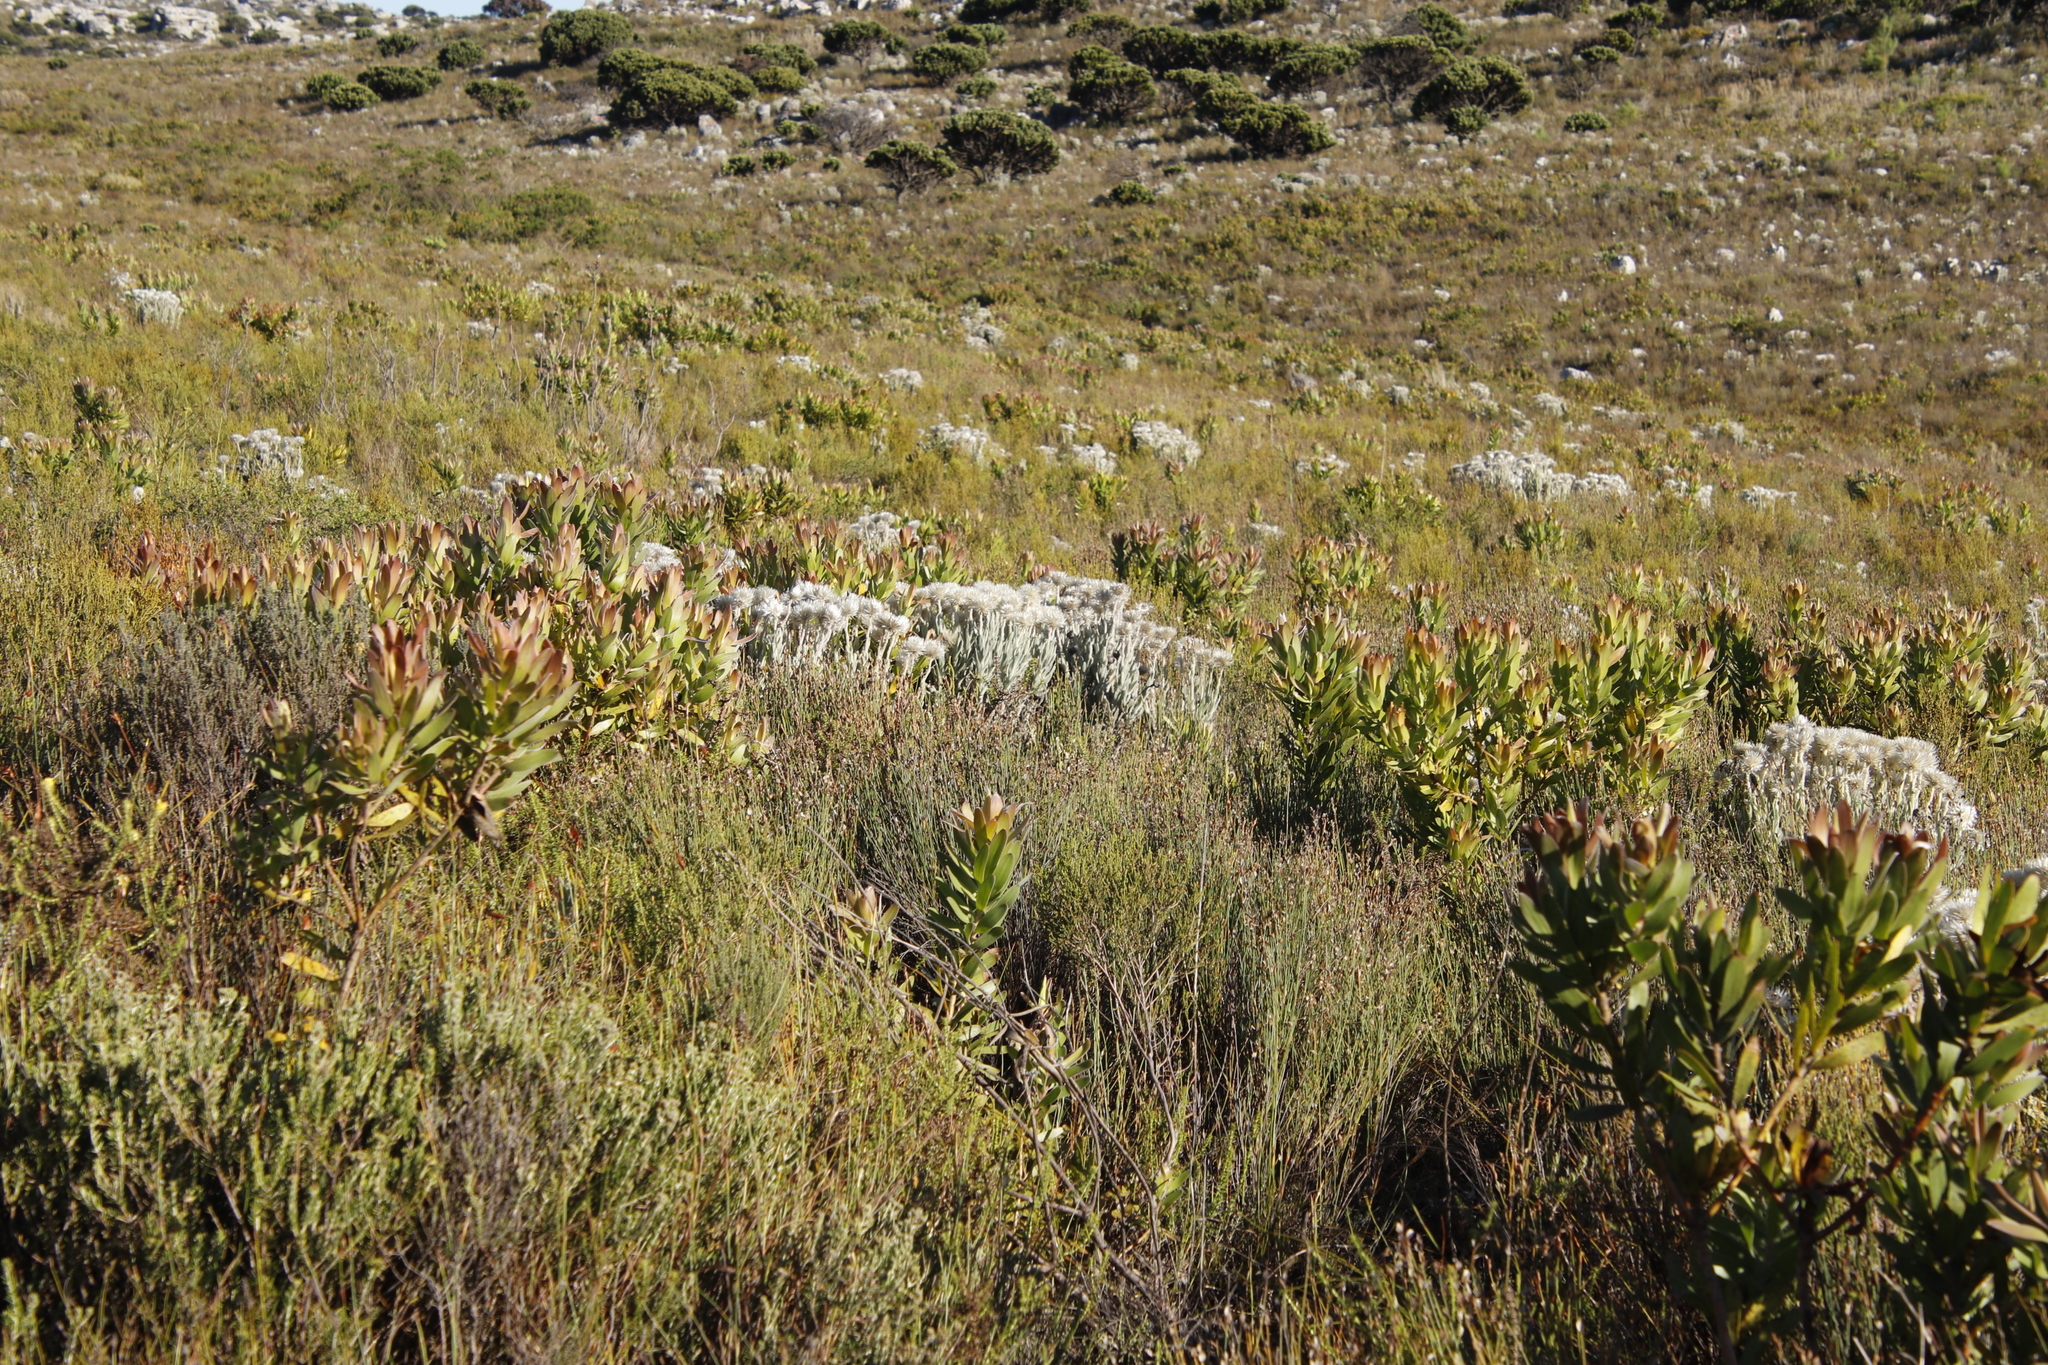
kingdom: Plantae
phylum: Tracheophyta
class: Magnoliopsida
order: Asterales
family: Asteraceae
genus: Syncarpha
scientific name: Syncarpha vestita
